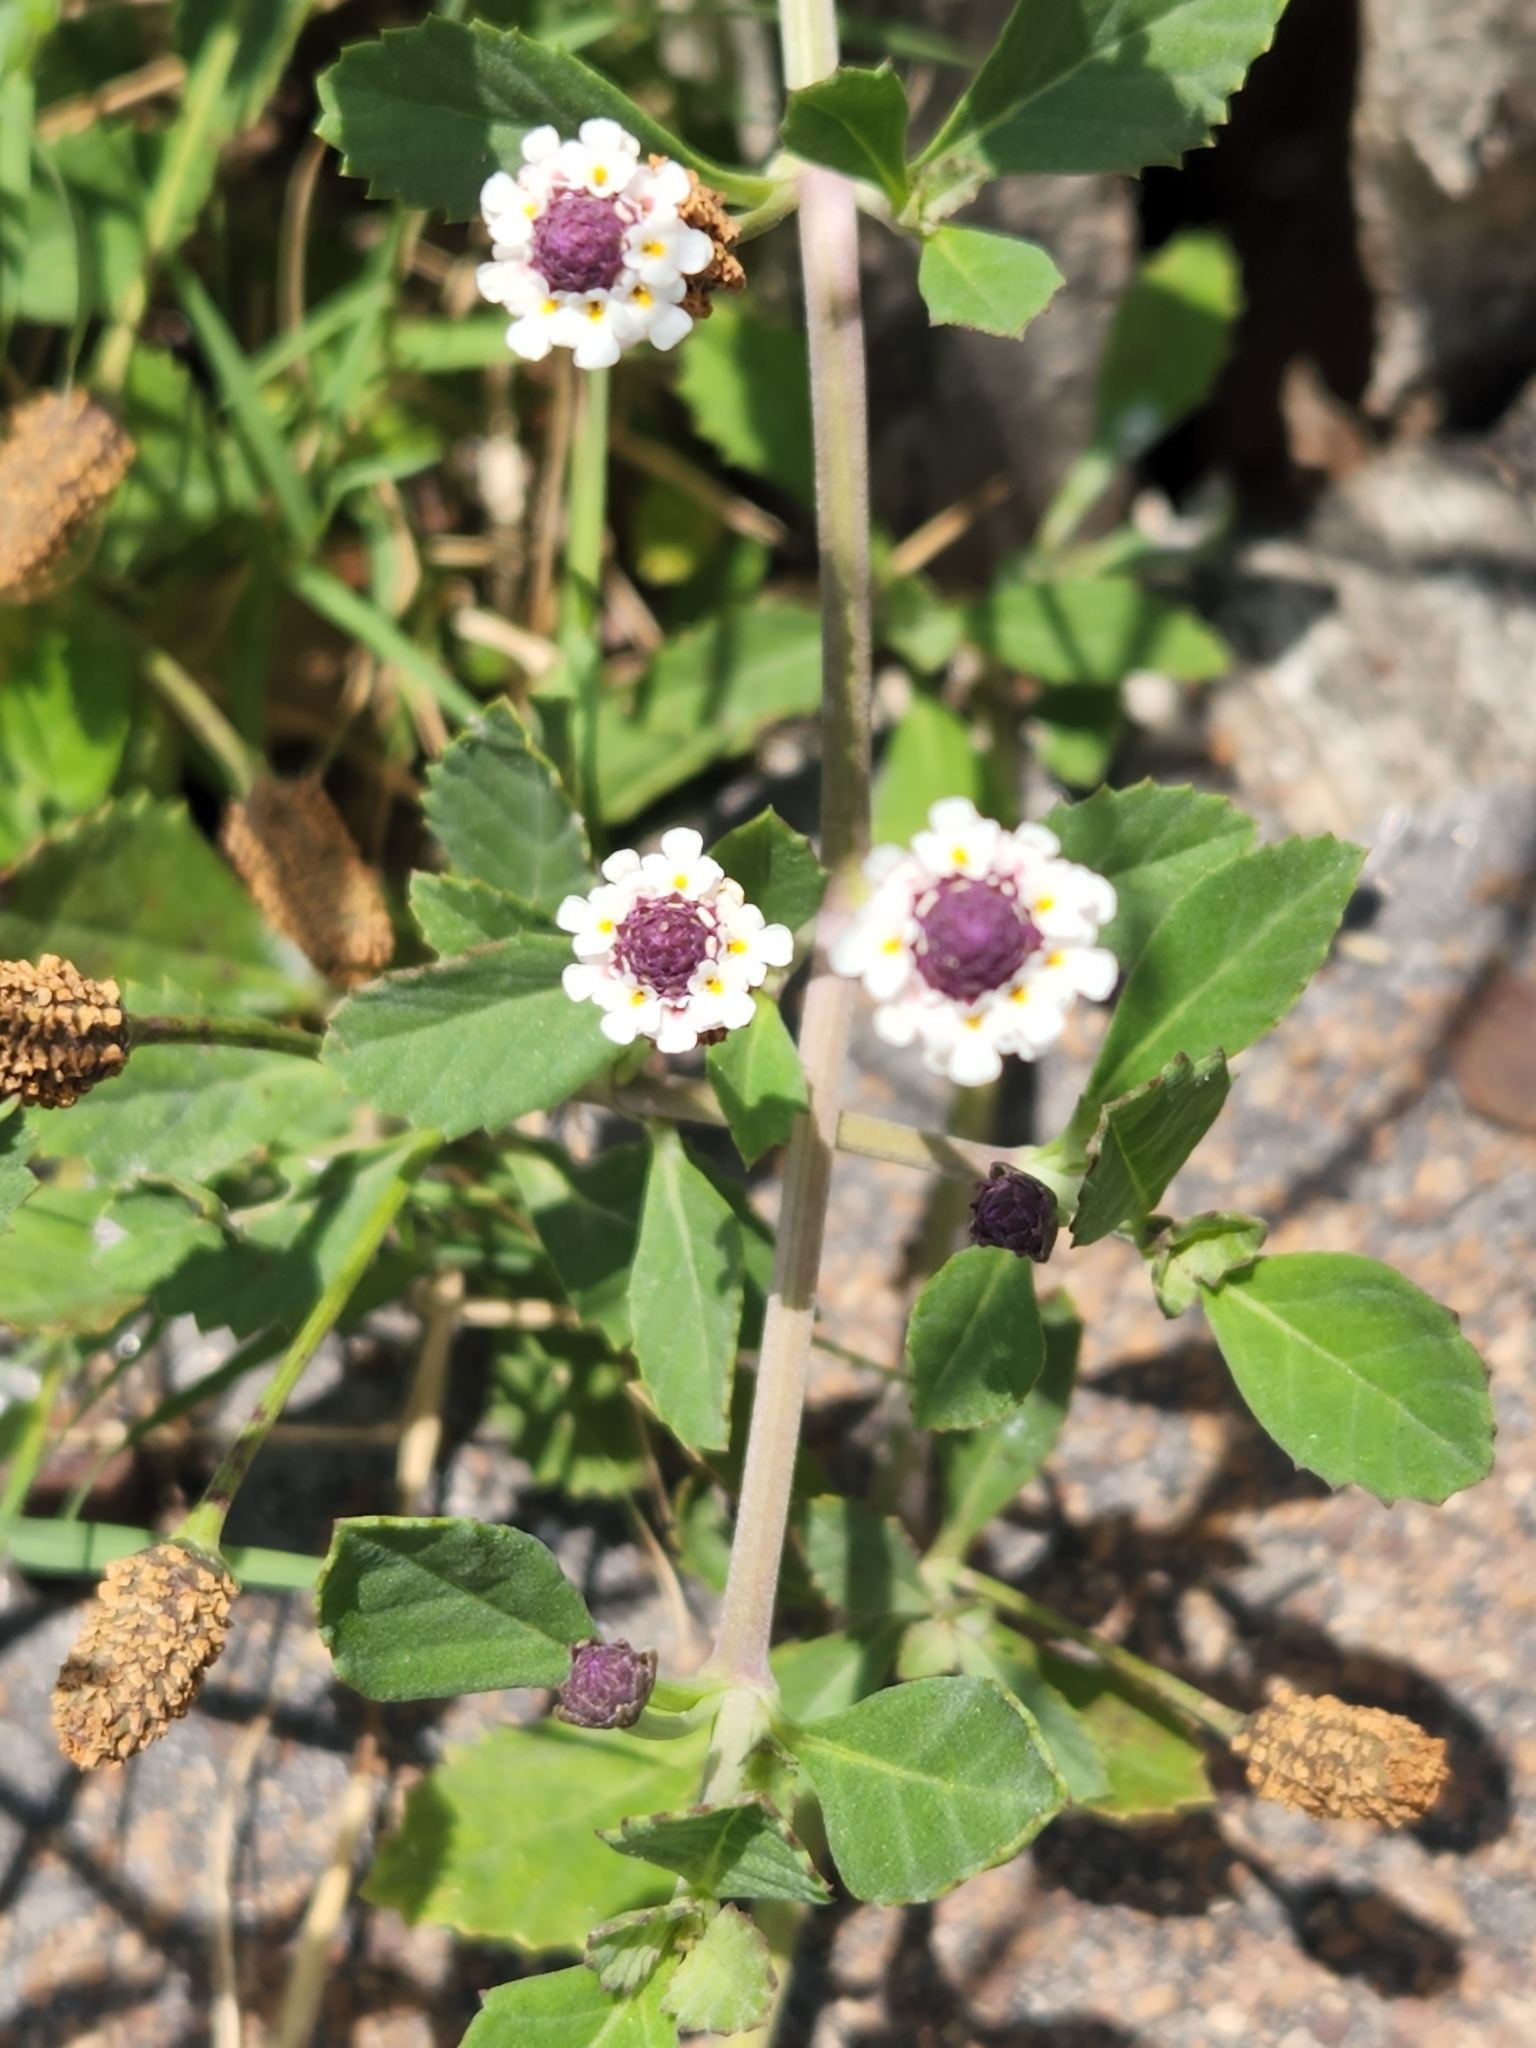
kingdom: Plantae
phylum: Tracheophyta
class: Magnoliopsida
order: Lamiales
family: Verbenaceae
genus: Phyla
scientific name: Phyla nodiflora
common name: Frogfruit
